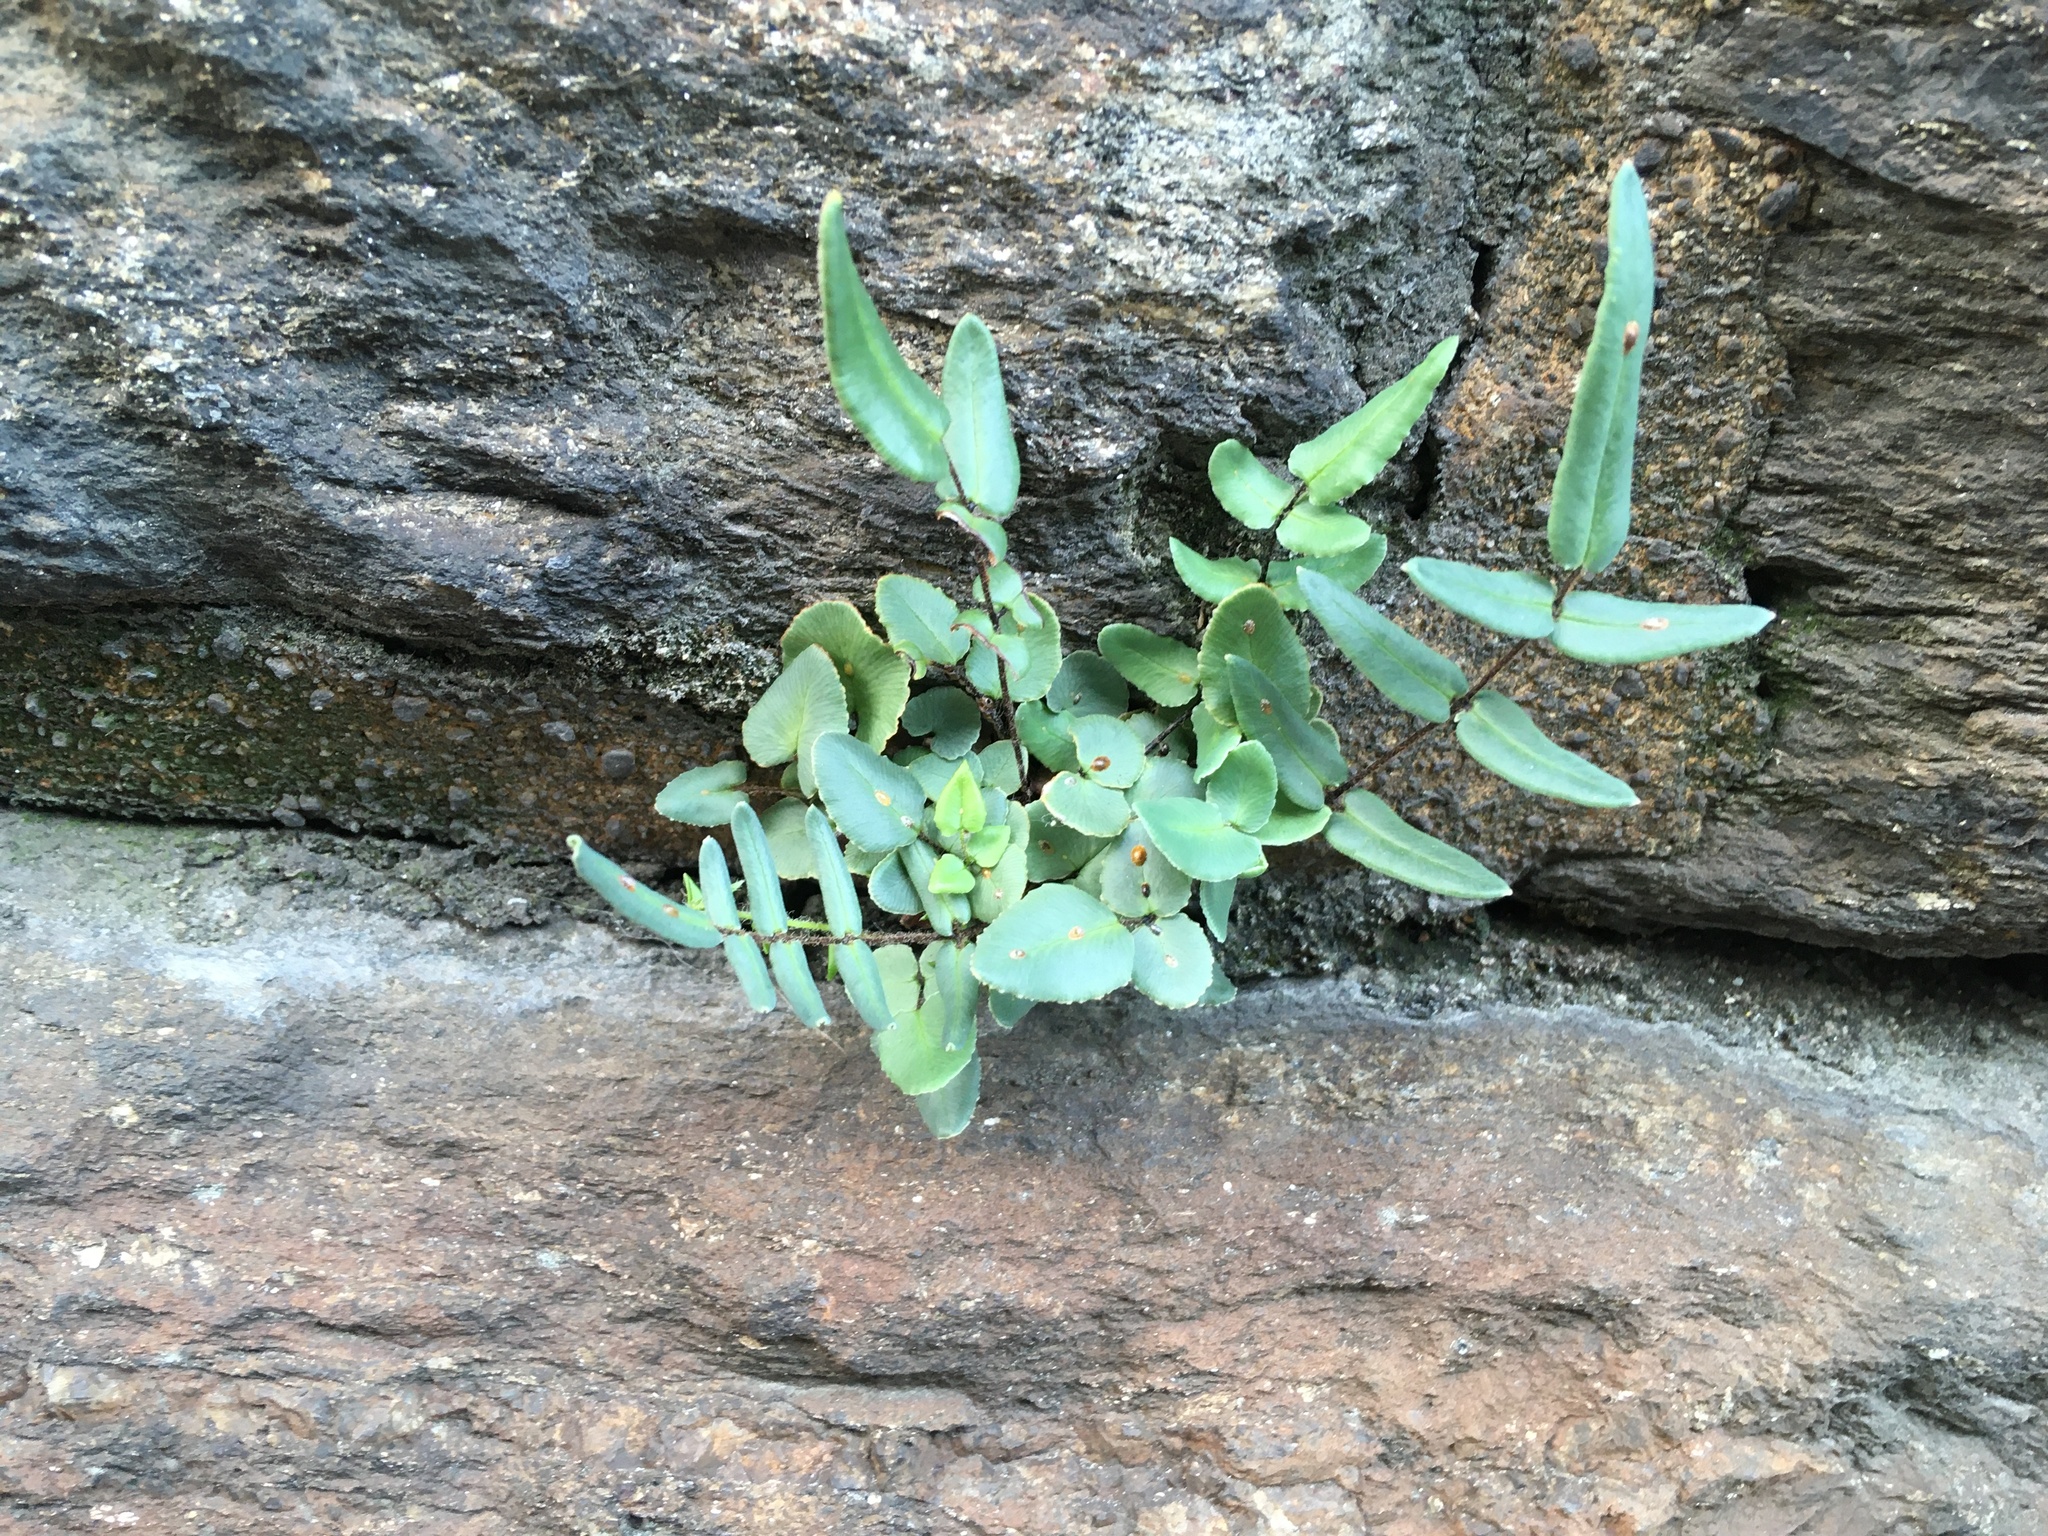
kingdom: Plantae
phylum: Tracheophyta
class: Polypodiopsida
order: Polypodiales
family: Pteridaceae
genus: Pellaea
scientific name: Pellaea atropurpurea
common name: Hairy cliffbrake
